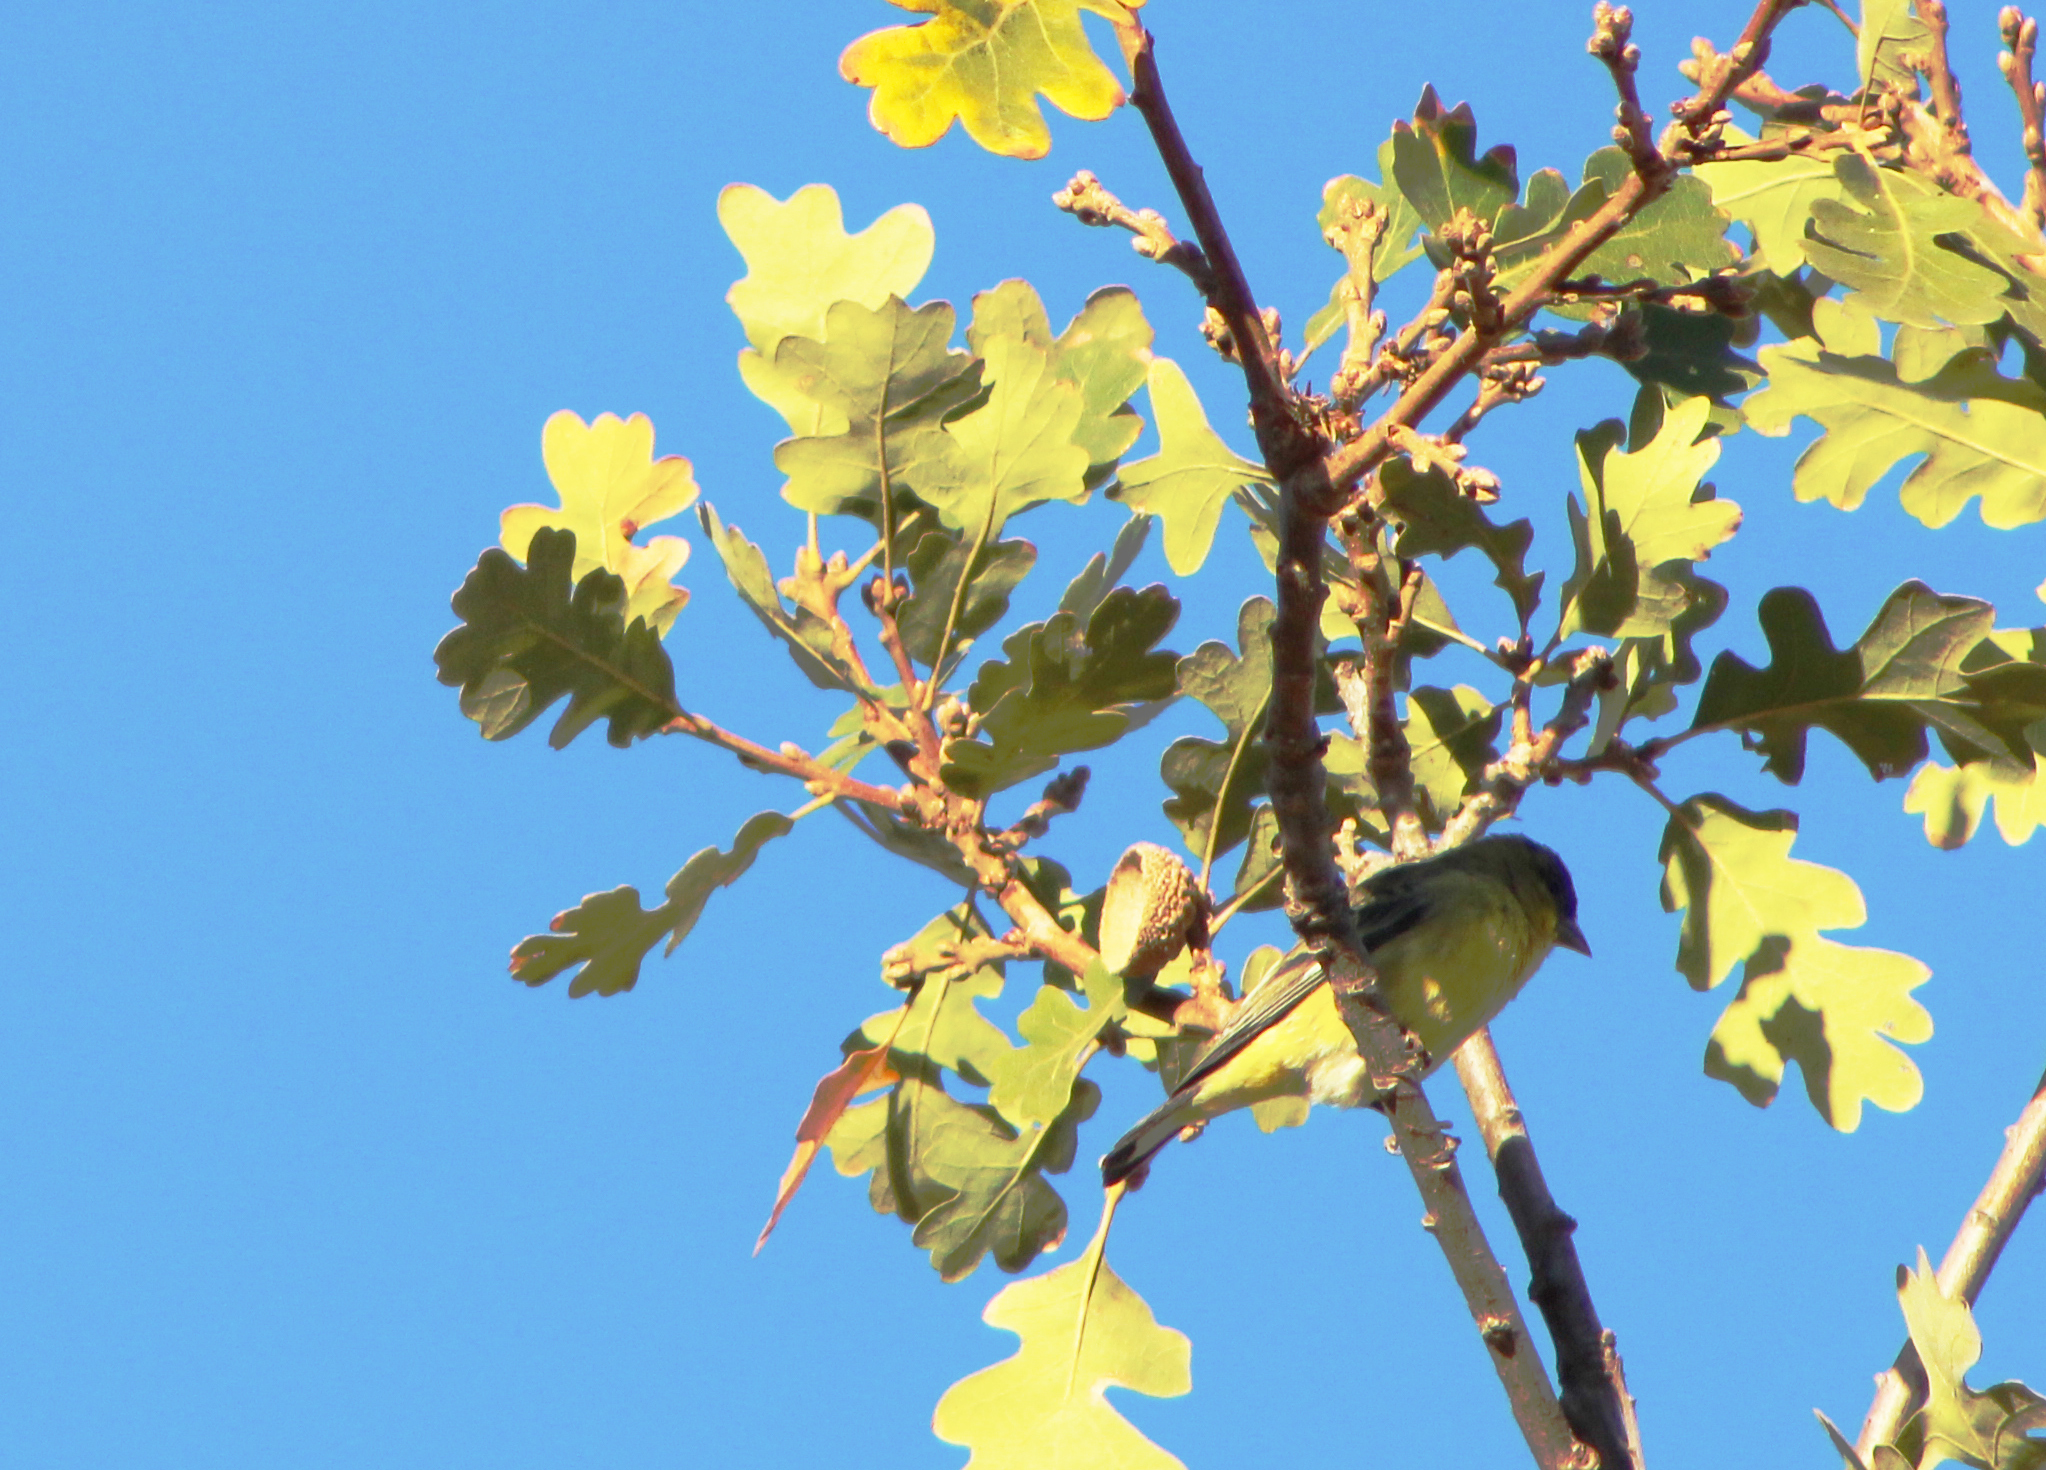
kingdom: Animalia
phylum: Chordata
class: Aves
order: Passeriformes
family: Fringillidae
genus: Spinus
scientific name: Spinus psaltria
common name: Lesser goldfinch
